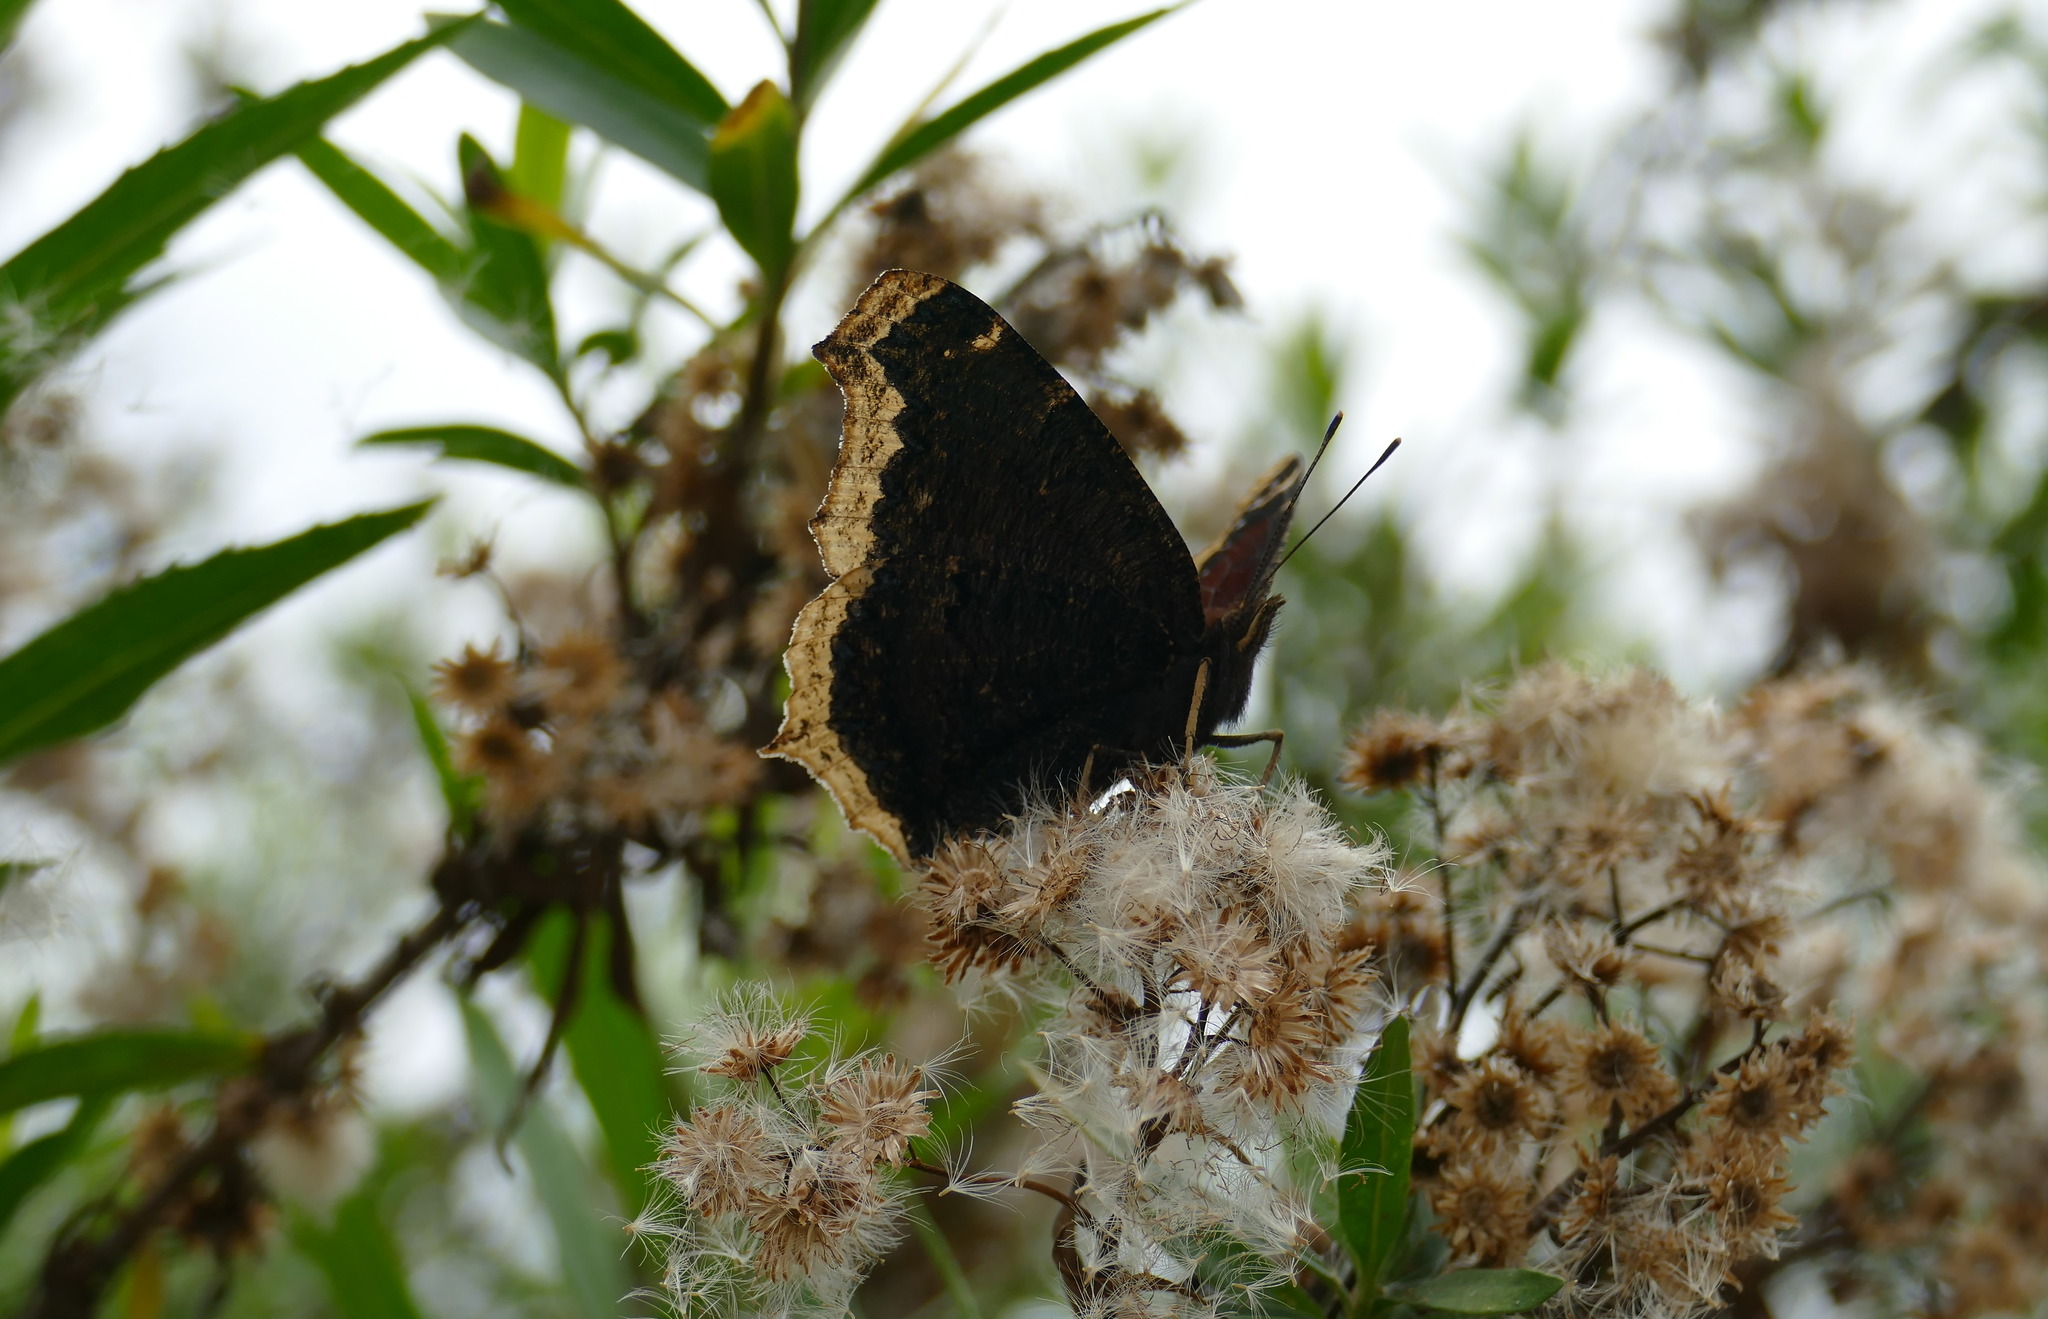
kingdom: Animalia
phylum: Arthropoda
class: Insecta
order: Lepidoptera
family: Nymphalidae
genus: Nymphalis
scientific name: Nymphalis antiopa
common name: Camberwell beauty
